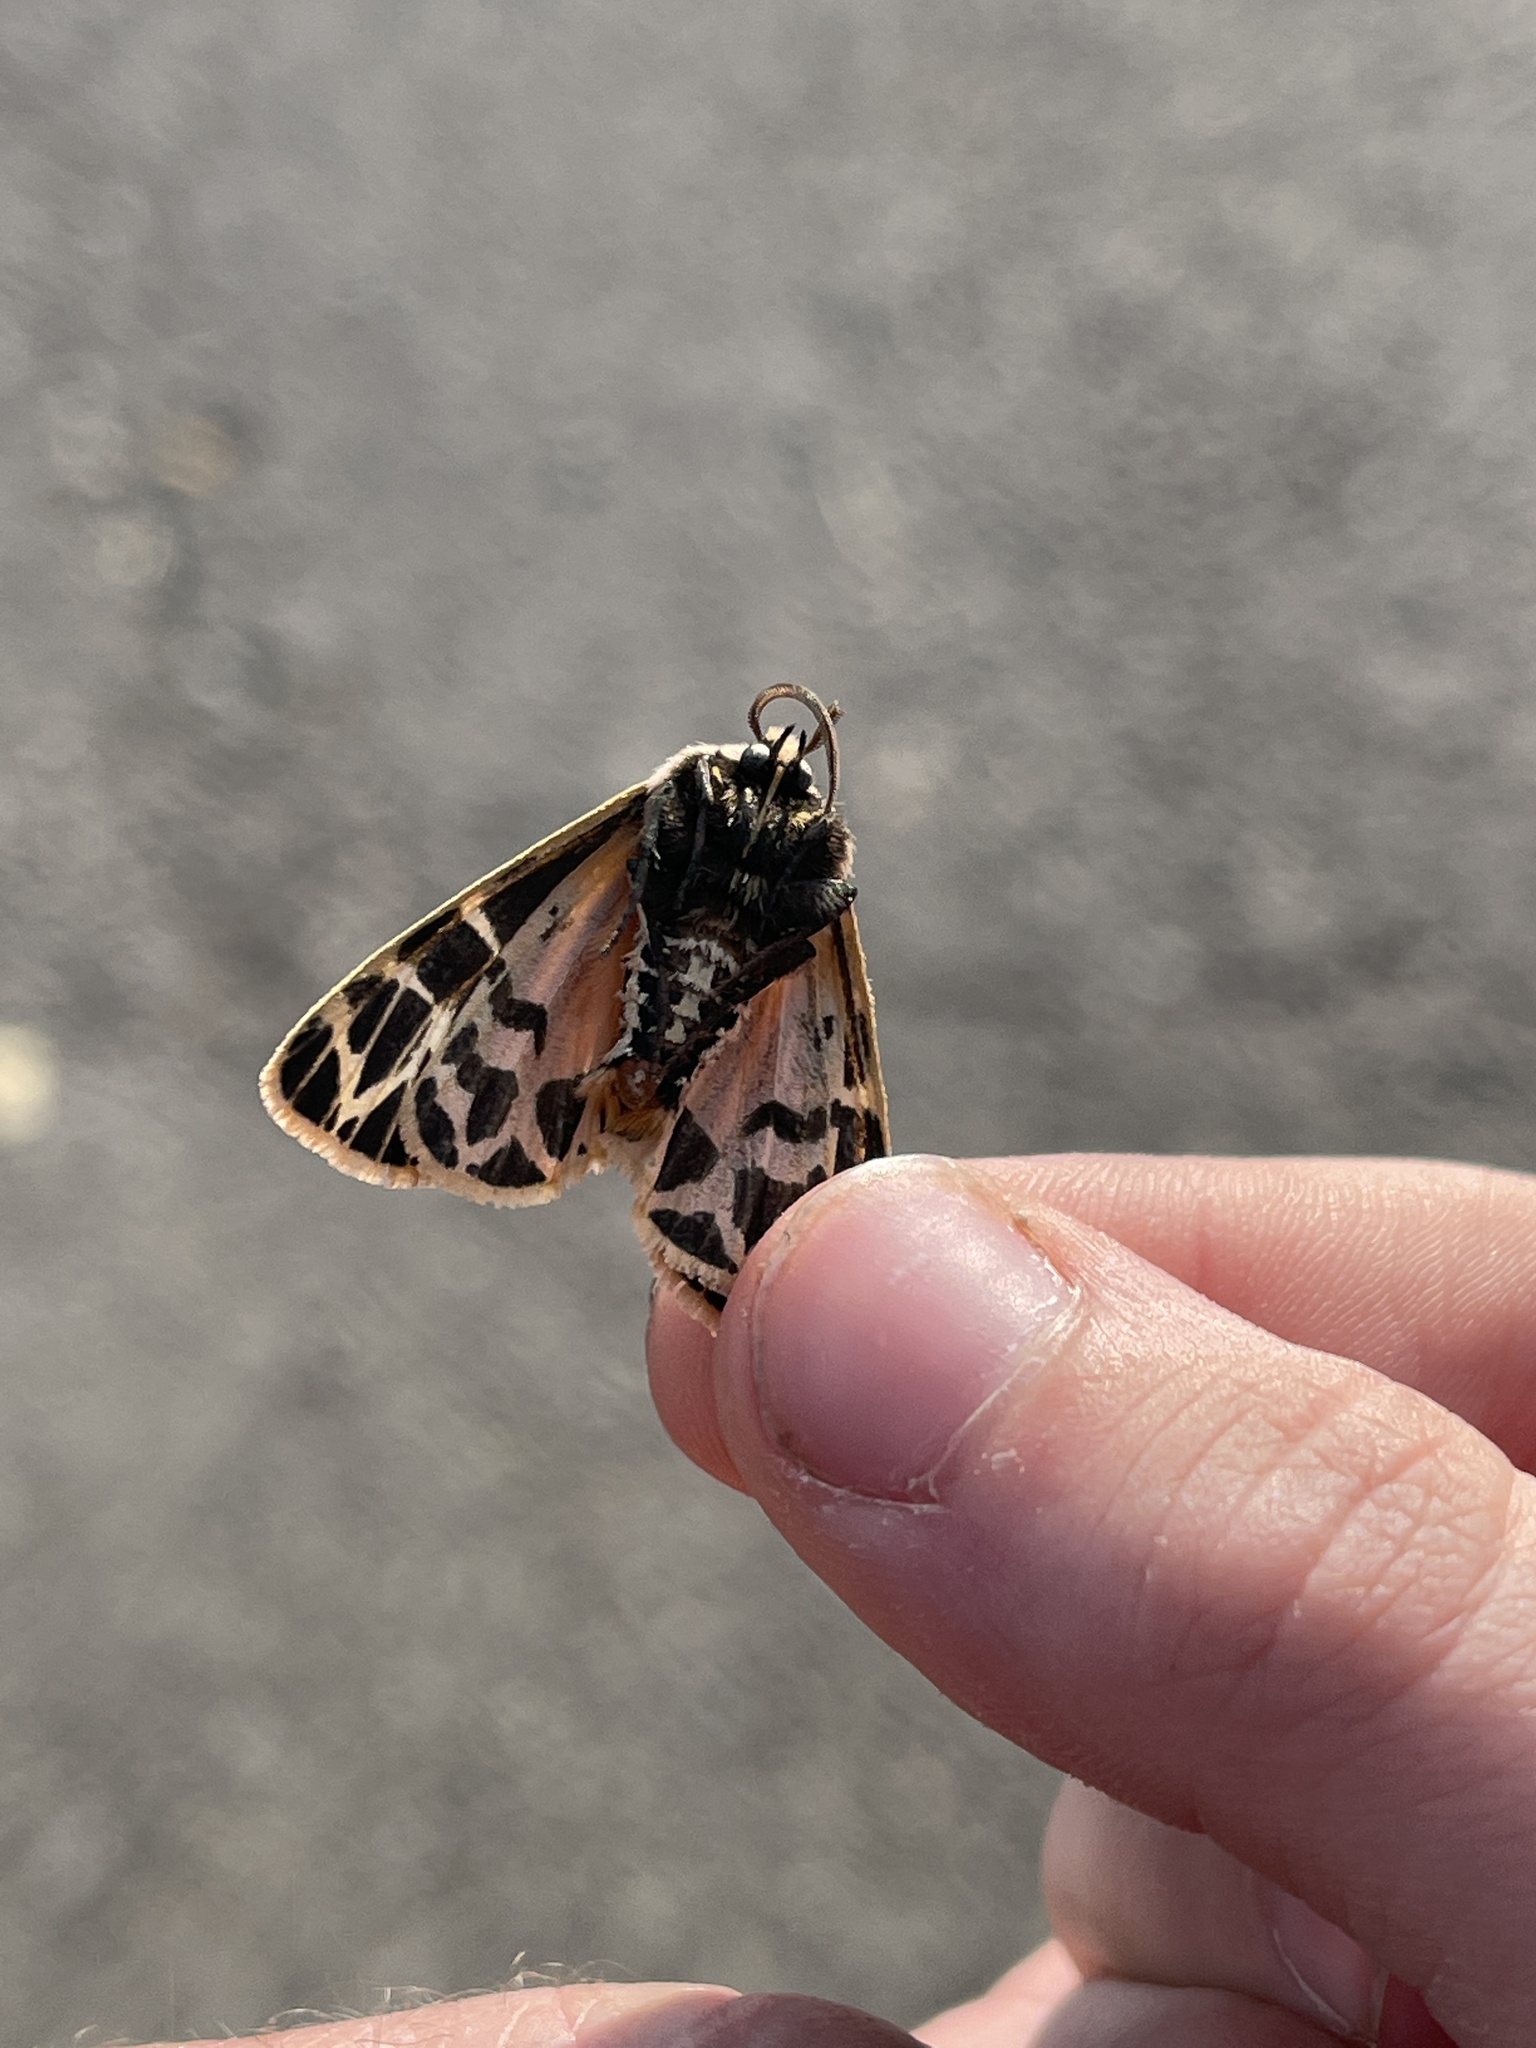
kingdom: Animalia
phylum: Arthropoda
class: Insecta
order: Lepidoptera
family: Erebidae
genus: Grammia
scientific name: Grammia parthenice
